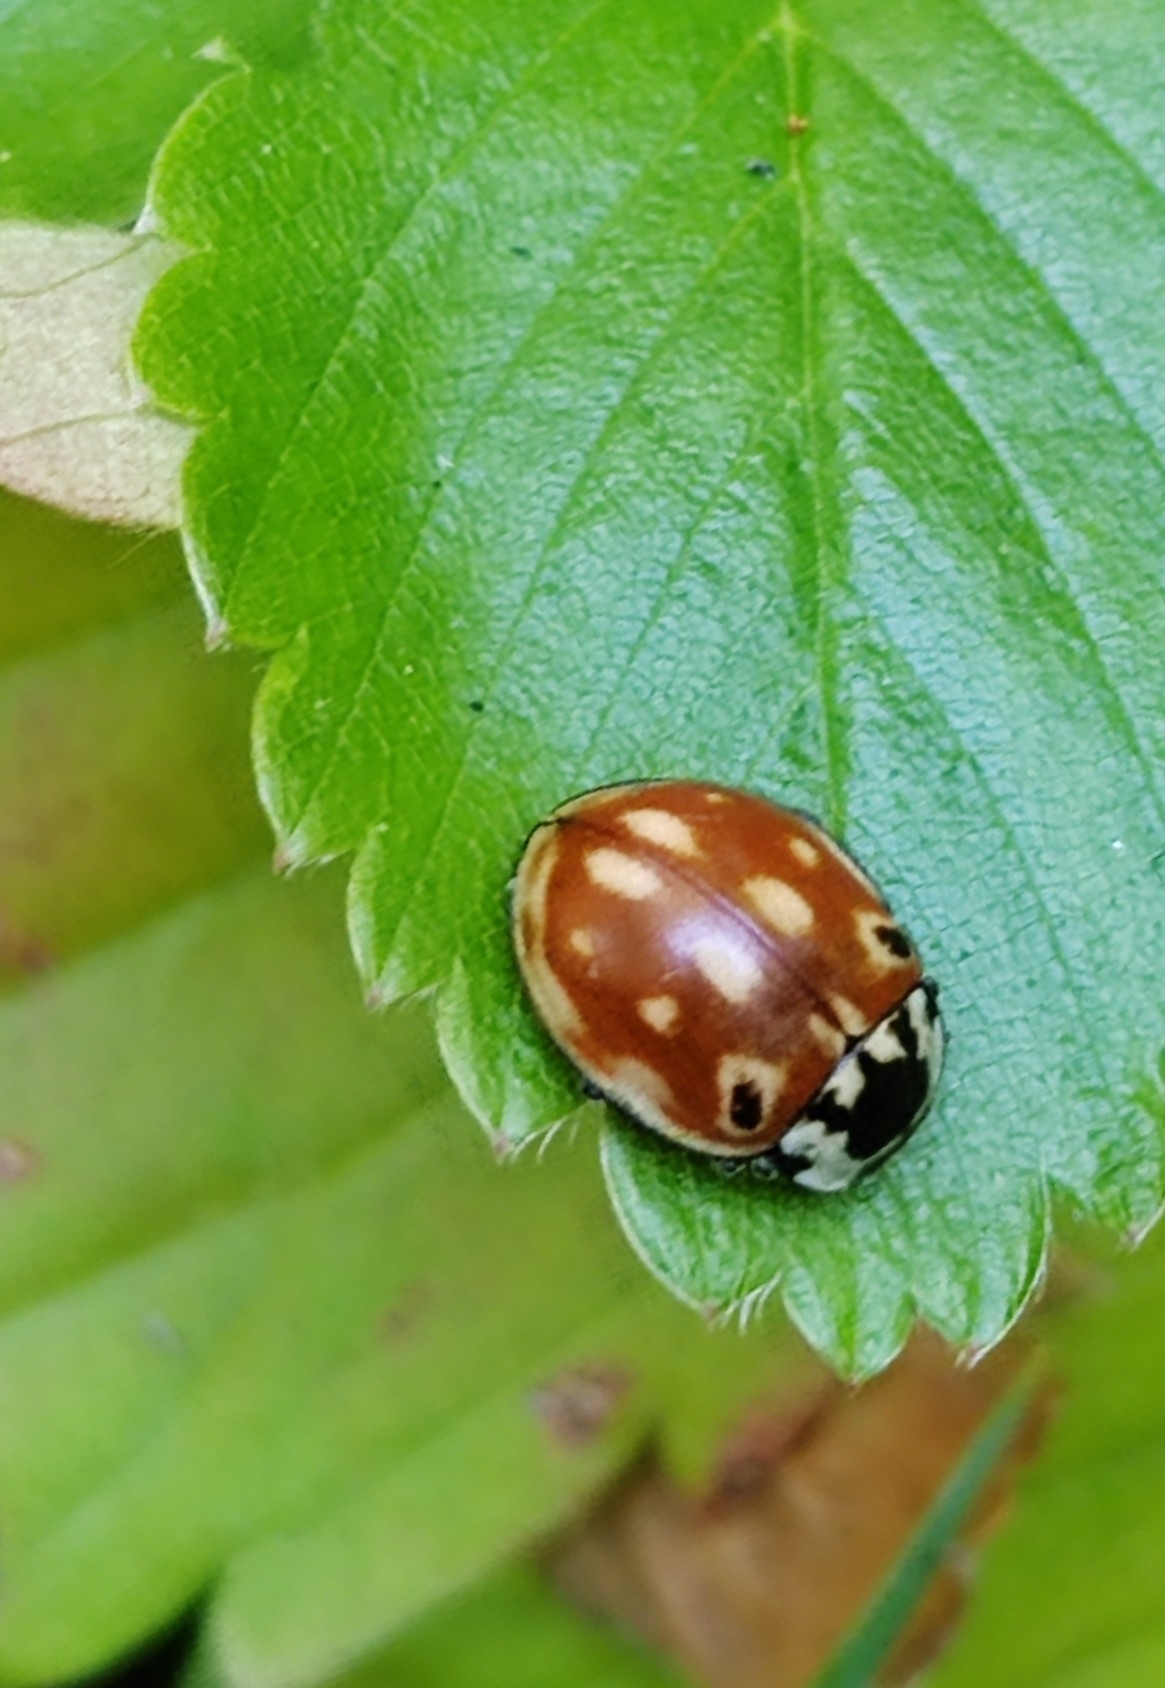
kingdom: Animalia
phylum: Arthropoda
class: Insecta
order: Coleoptera
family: Coccinellidae
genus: Anatis
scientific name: Anatis ocellata
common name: Eyed ladybird
